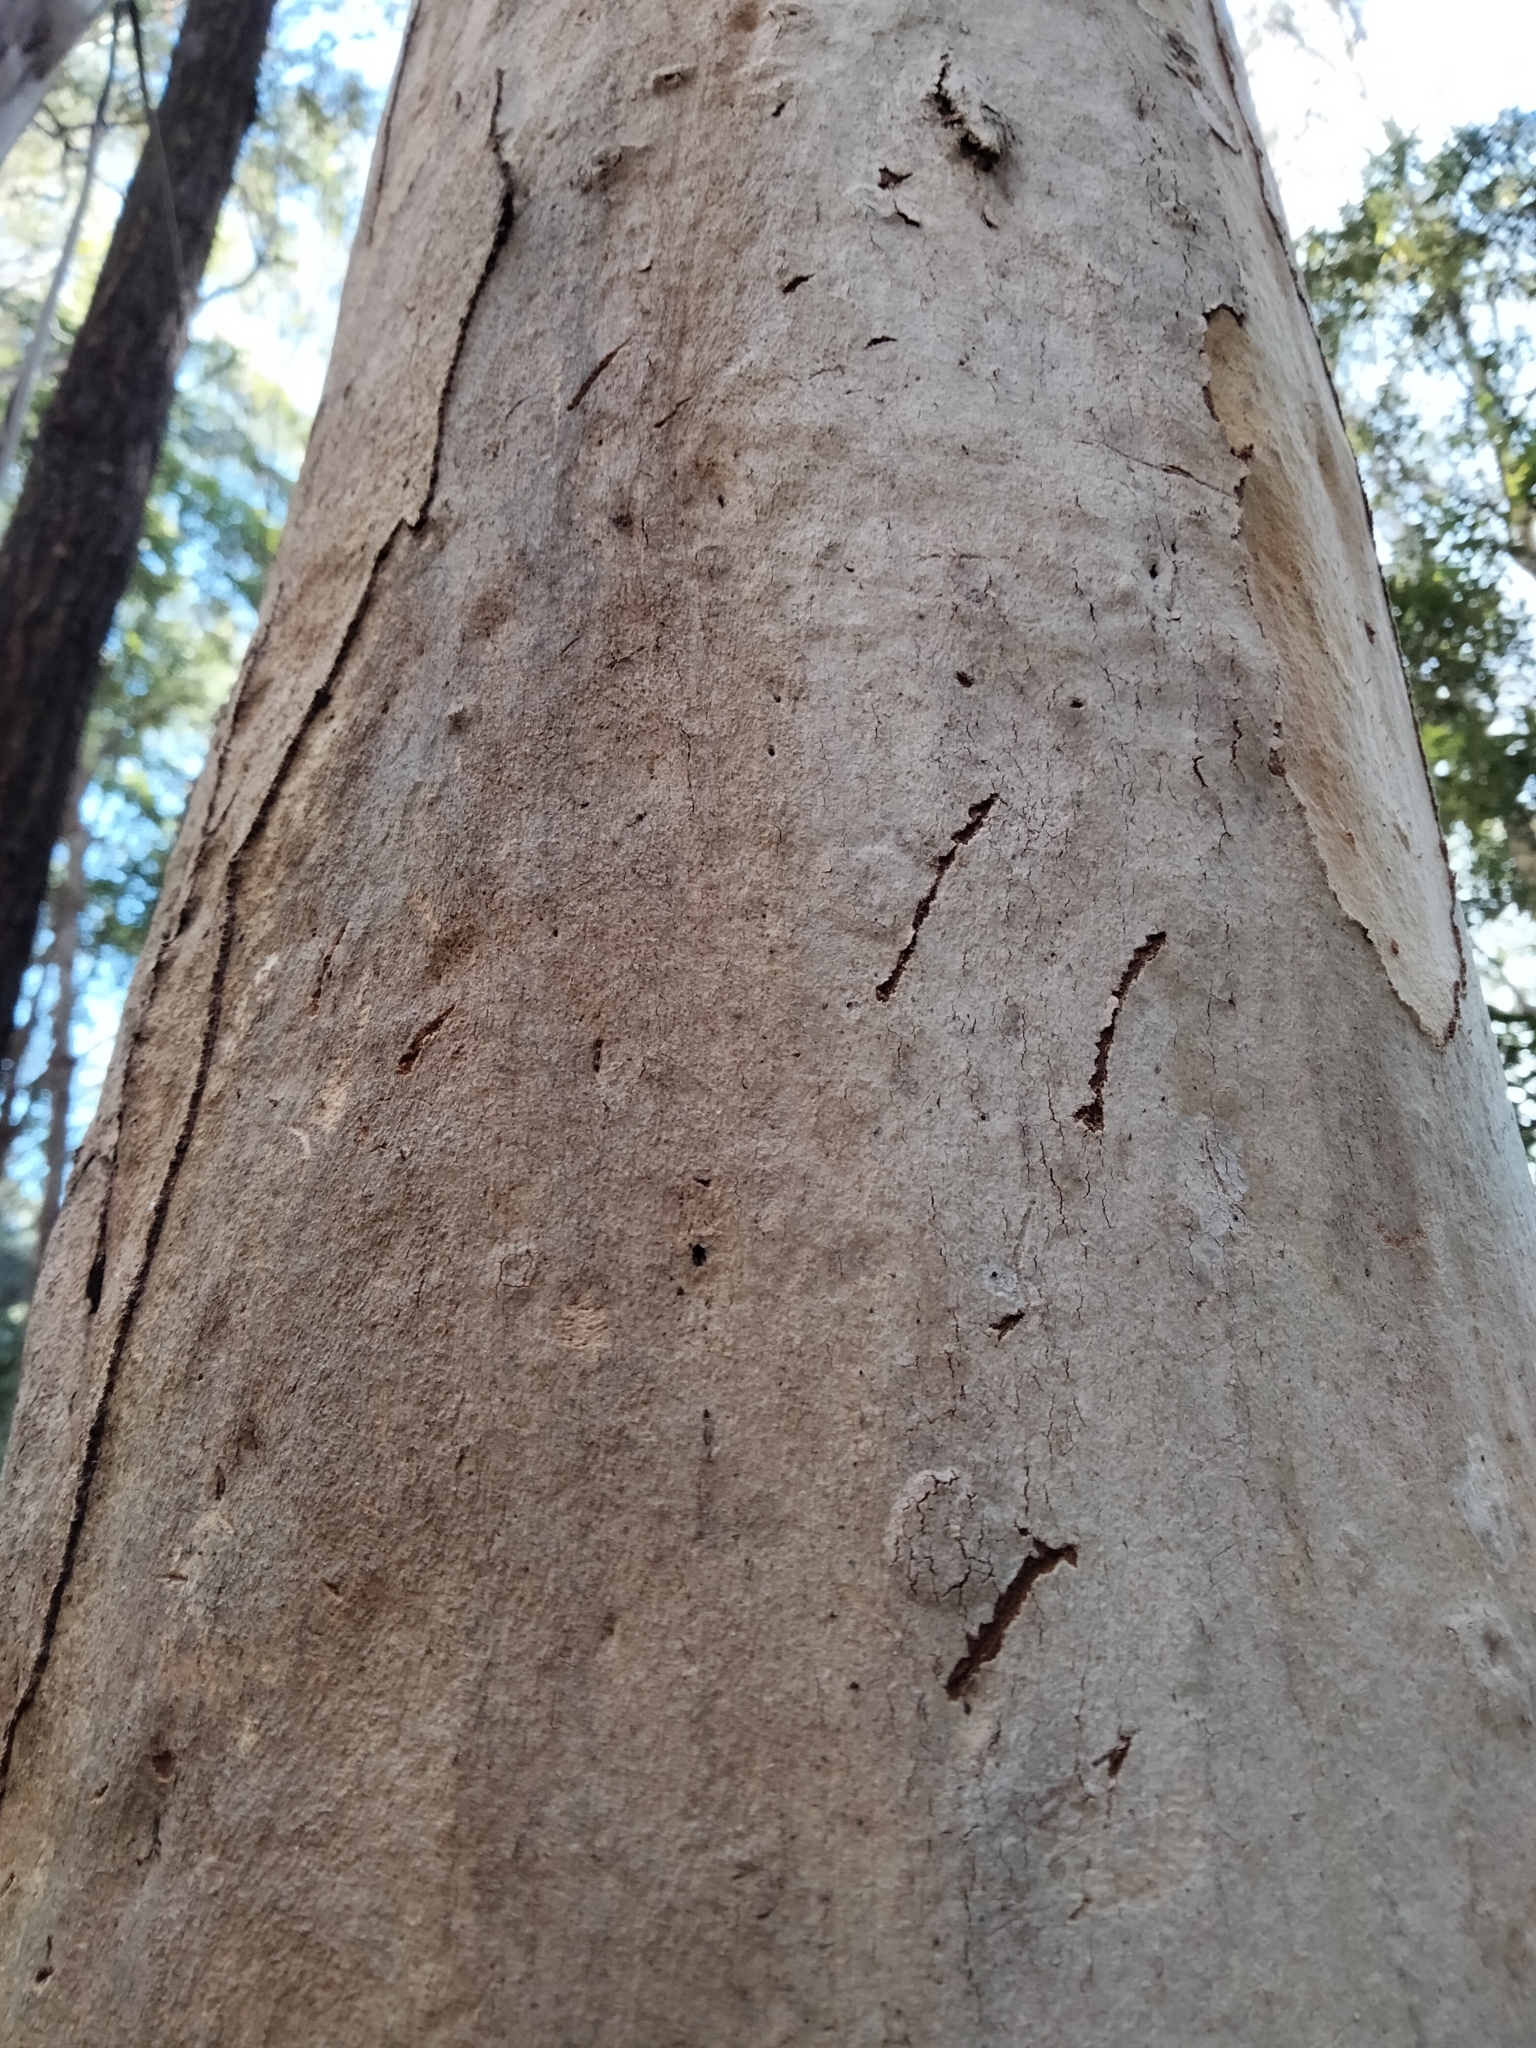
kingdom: Animalia
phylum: Chordata
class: Mammalia
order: Diprotodontia
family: Phascolarctidae
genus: Phascolarctos
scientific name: Phascolarctos cinereus
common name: Koala
